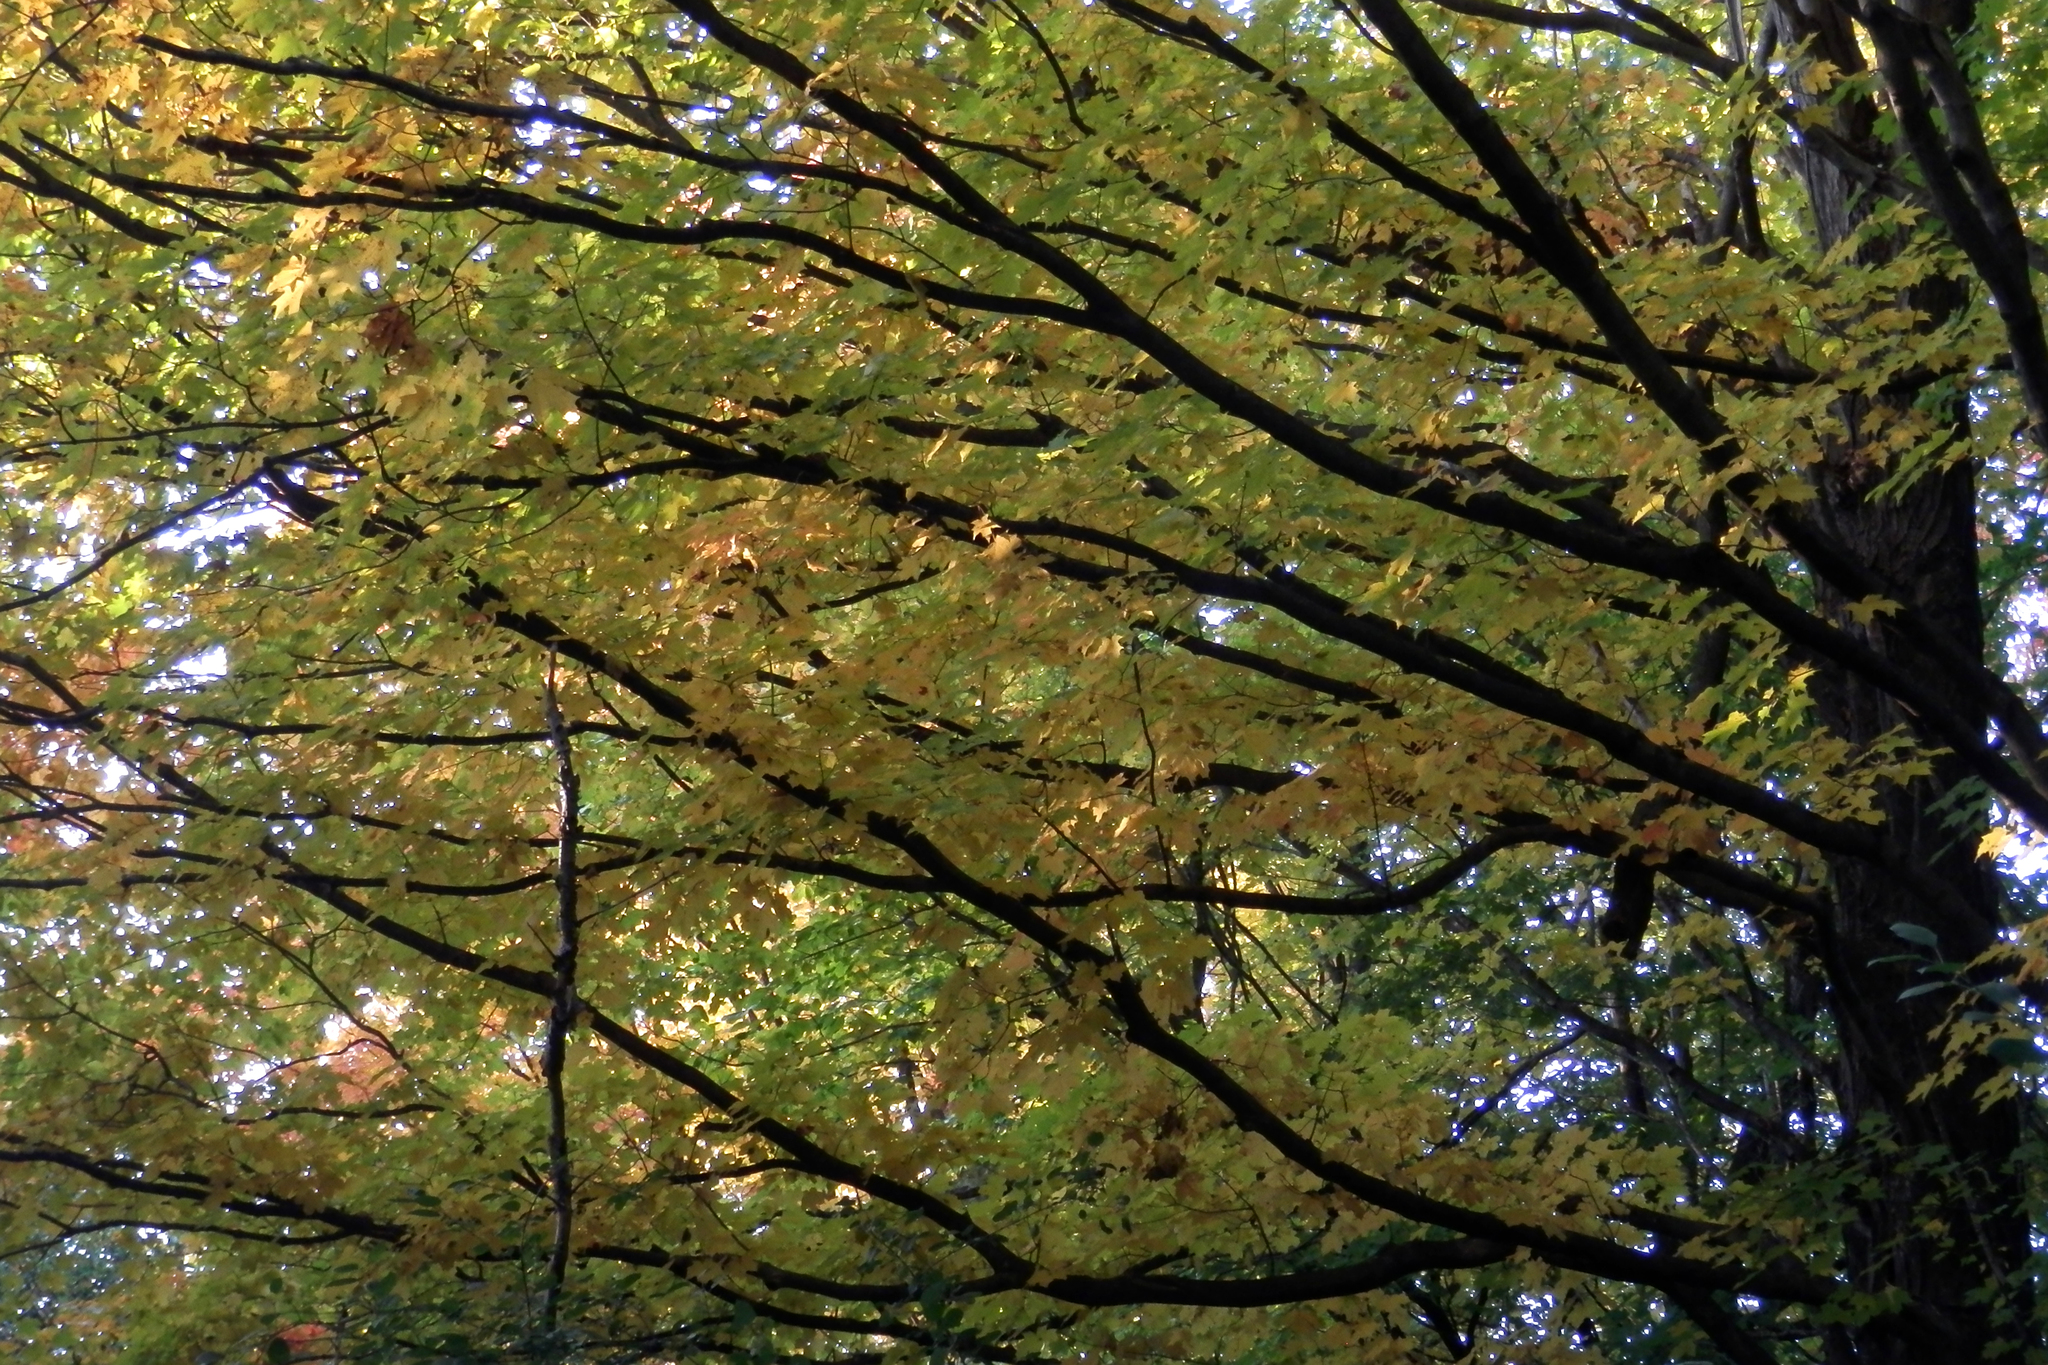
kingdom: Plantae
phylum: Tracheophyta
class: Magnoliopsida
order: Sapindales
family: Sapindaceae
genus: Acer
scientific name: Acer saccharum
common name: Sugar maple
